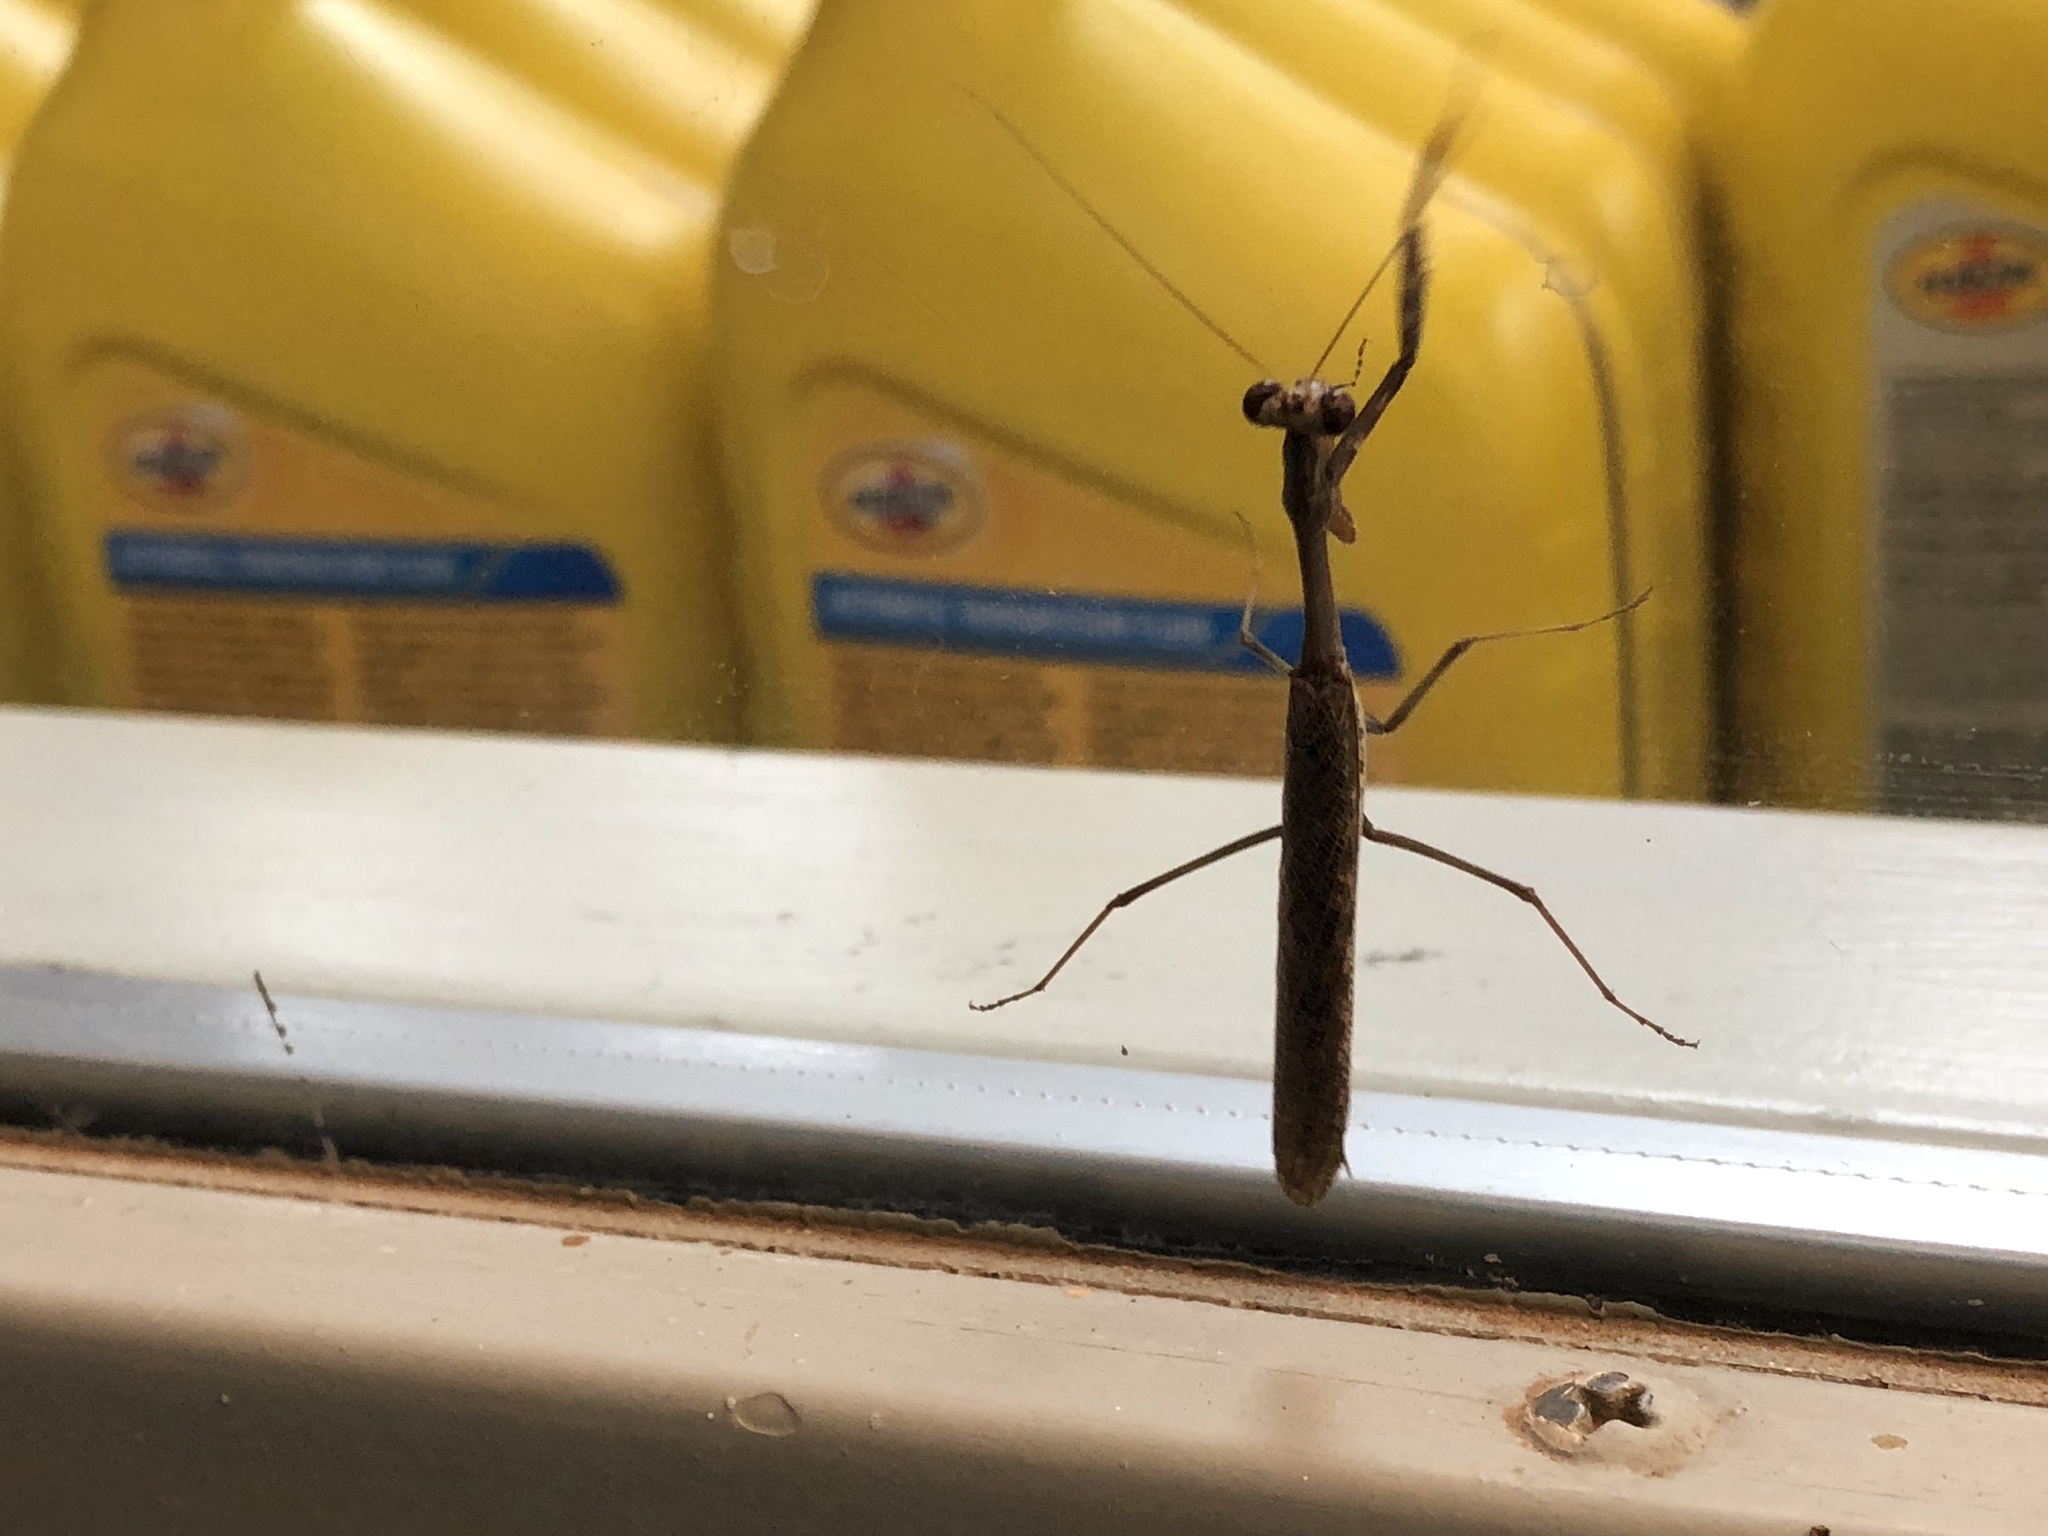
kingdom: Animalia
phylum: Arthropoda
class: Insecta
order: Mantodea
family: Mantidae
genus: Stagmomantis
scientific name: Stagmomantis californica
